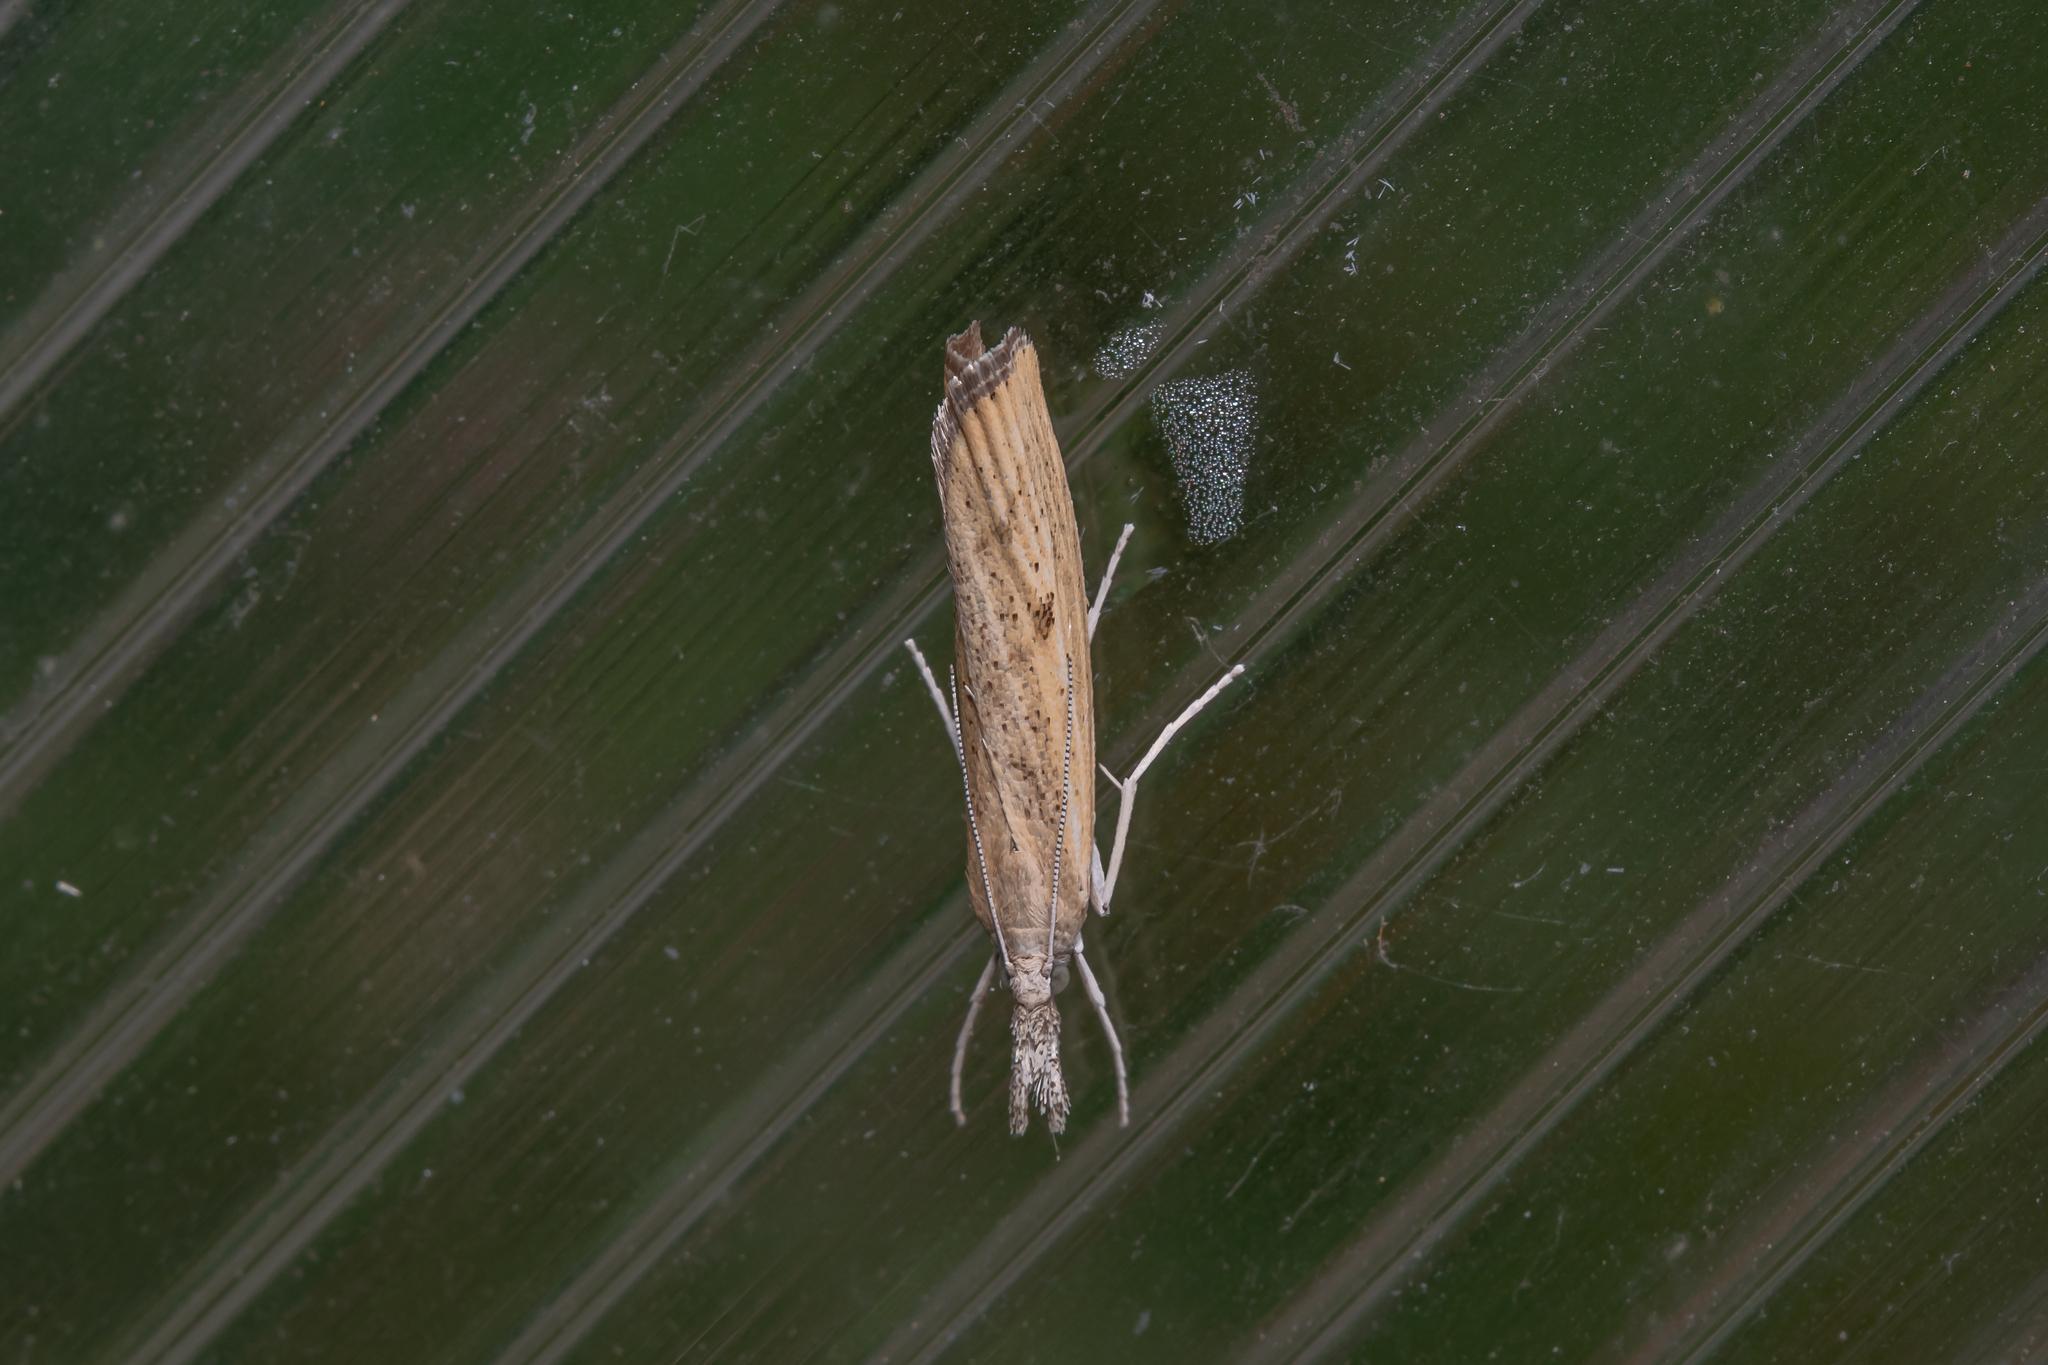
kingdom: Animalia
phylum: Arthropoda
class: Insecta
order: Lepidoptera
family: Crambidae
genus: Agriphila
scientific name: Agriphila inquinatella
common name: Barred grass-veneer
